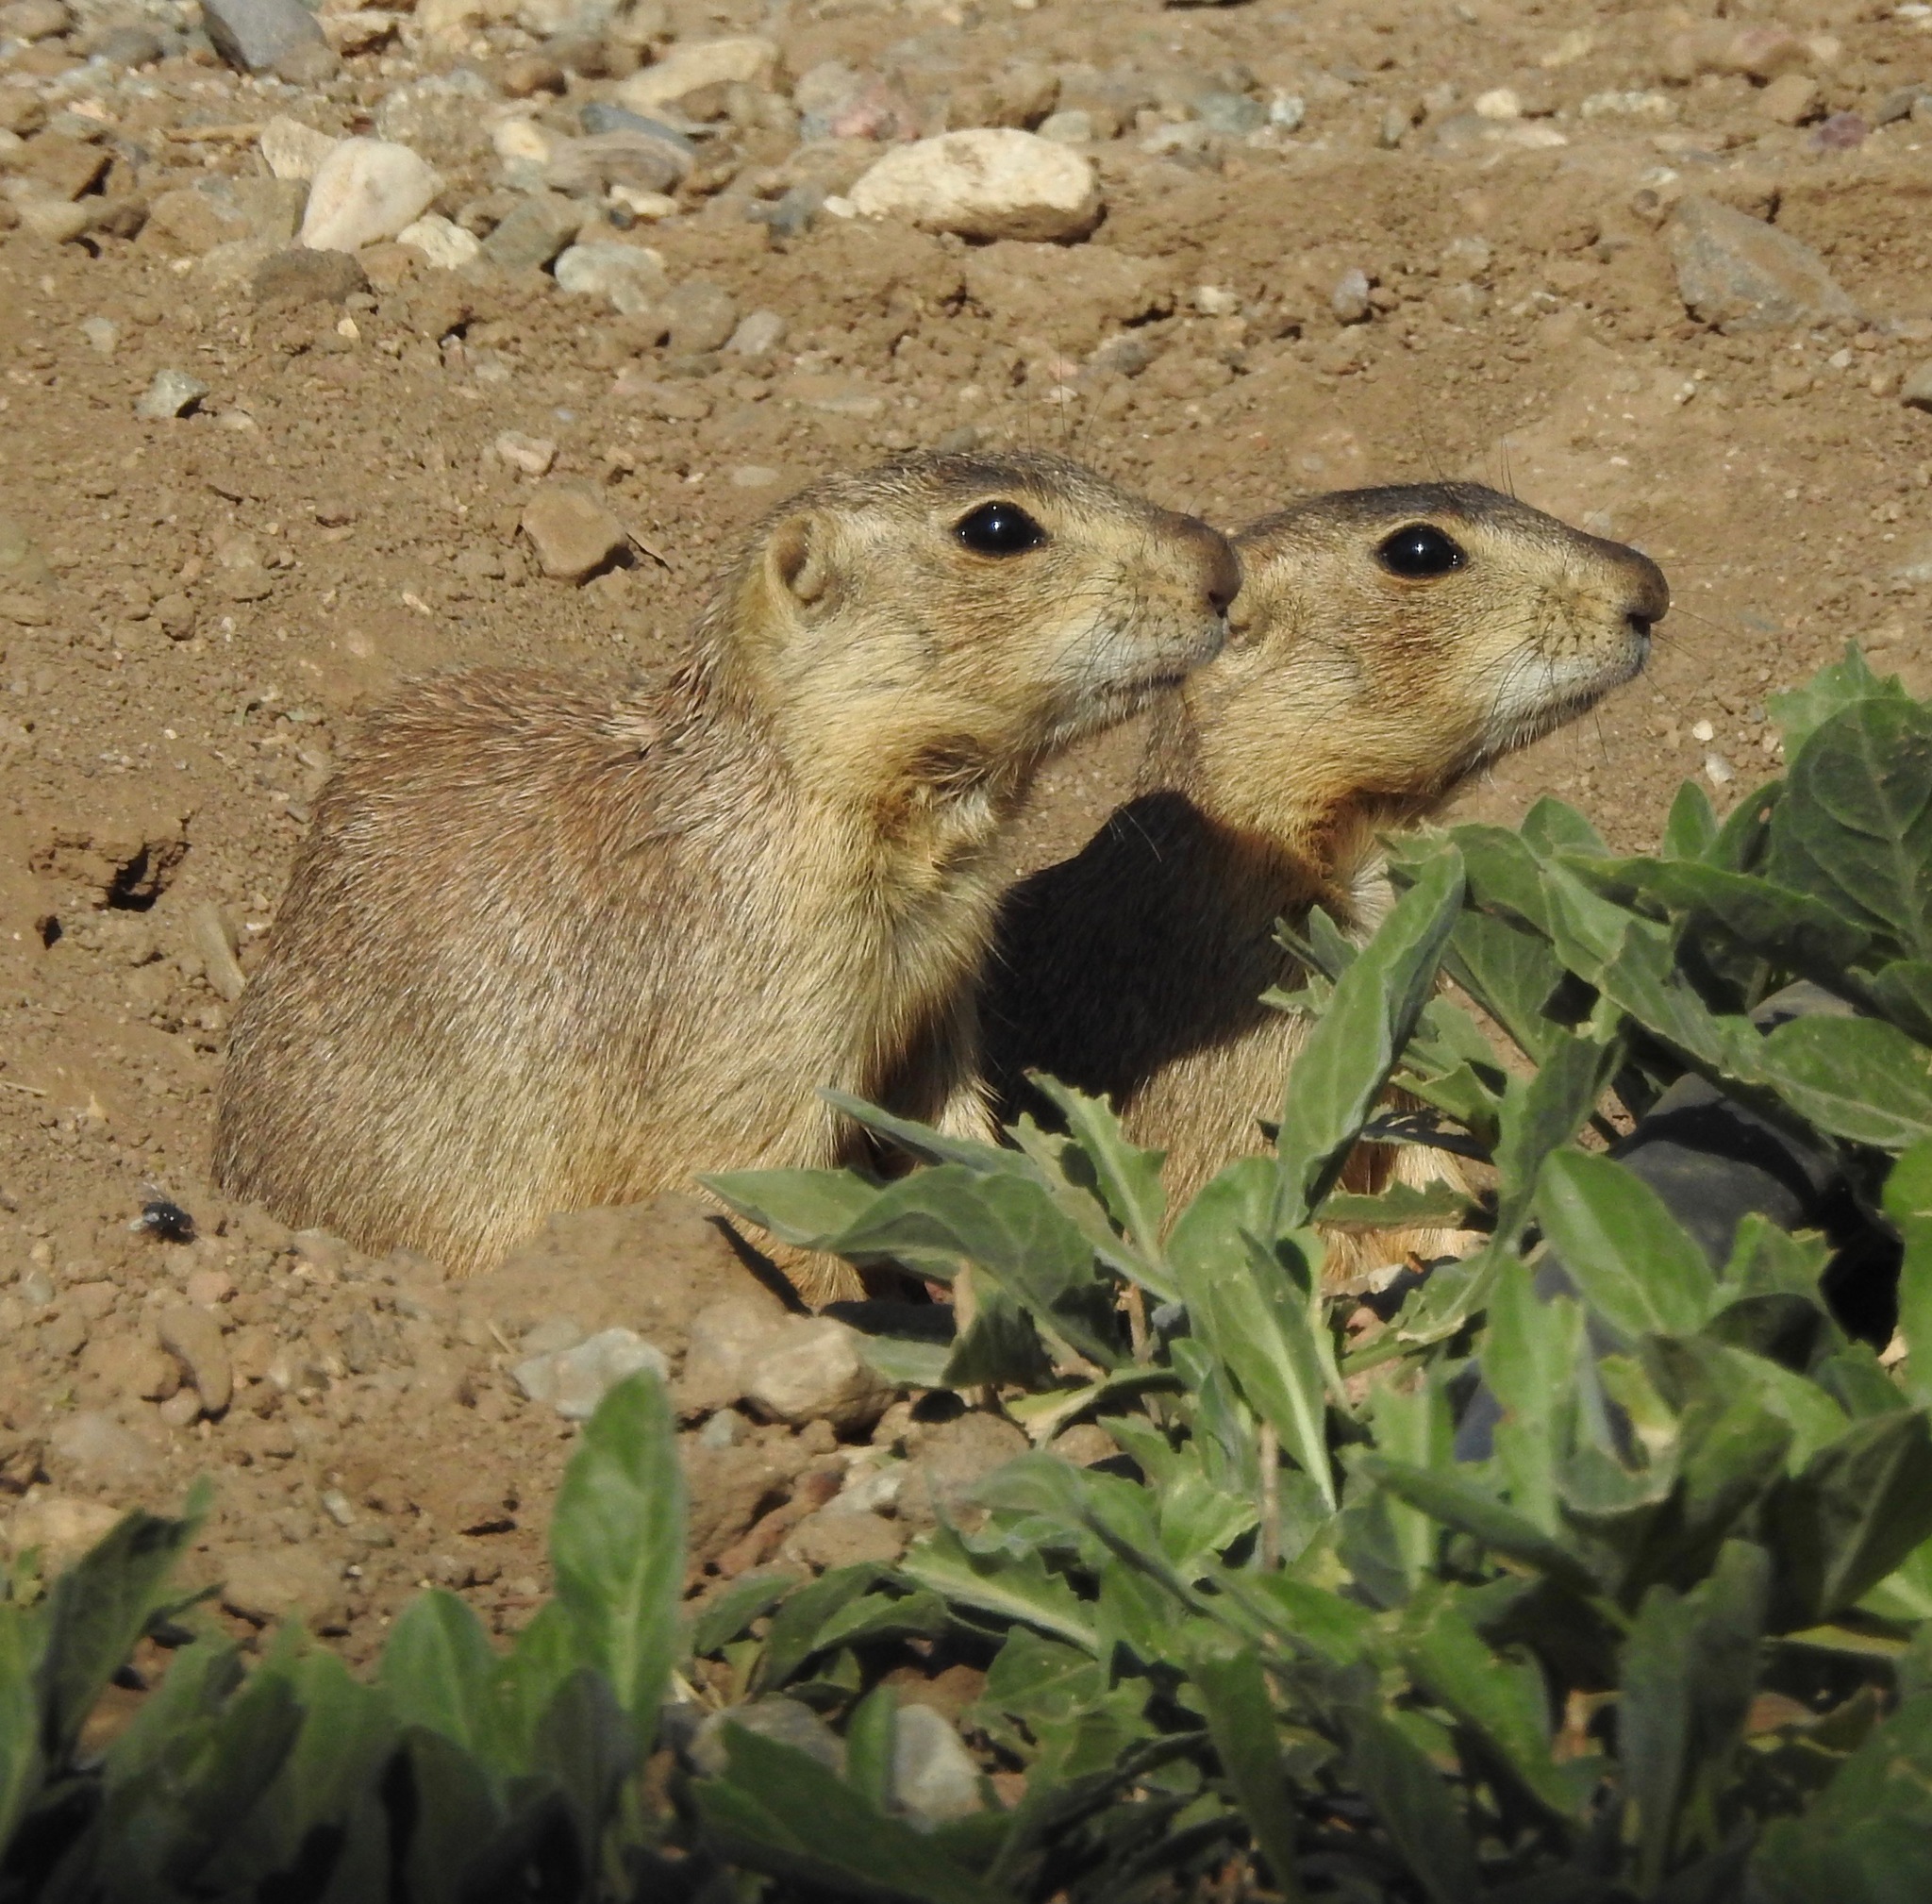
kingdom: Animalia
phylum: Chordata
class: Mammalia
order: Rodentia
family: Sciuridae
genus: Cynomys
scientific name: Cynomys gunnisoni
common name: Gunnison's prairie dog
